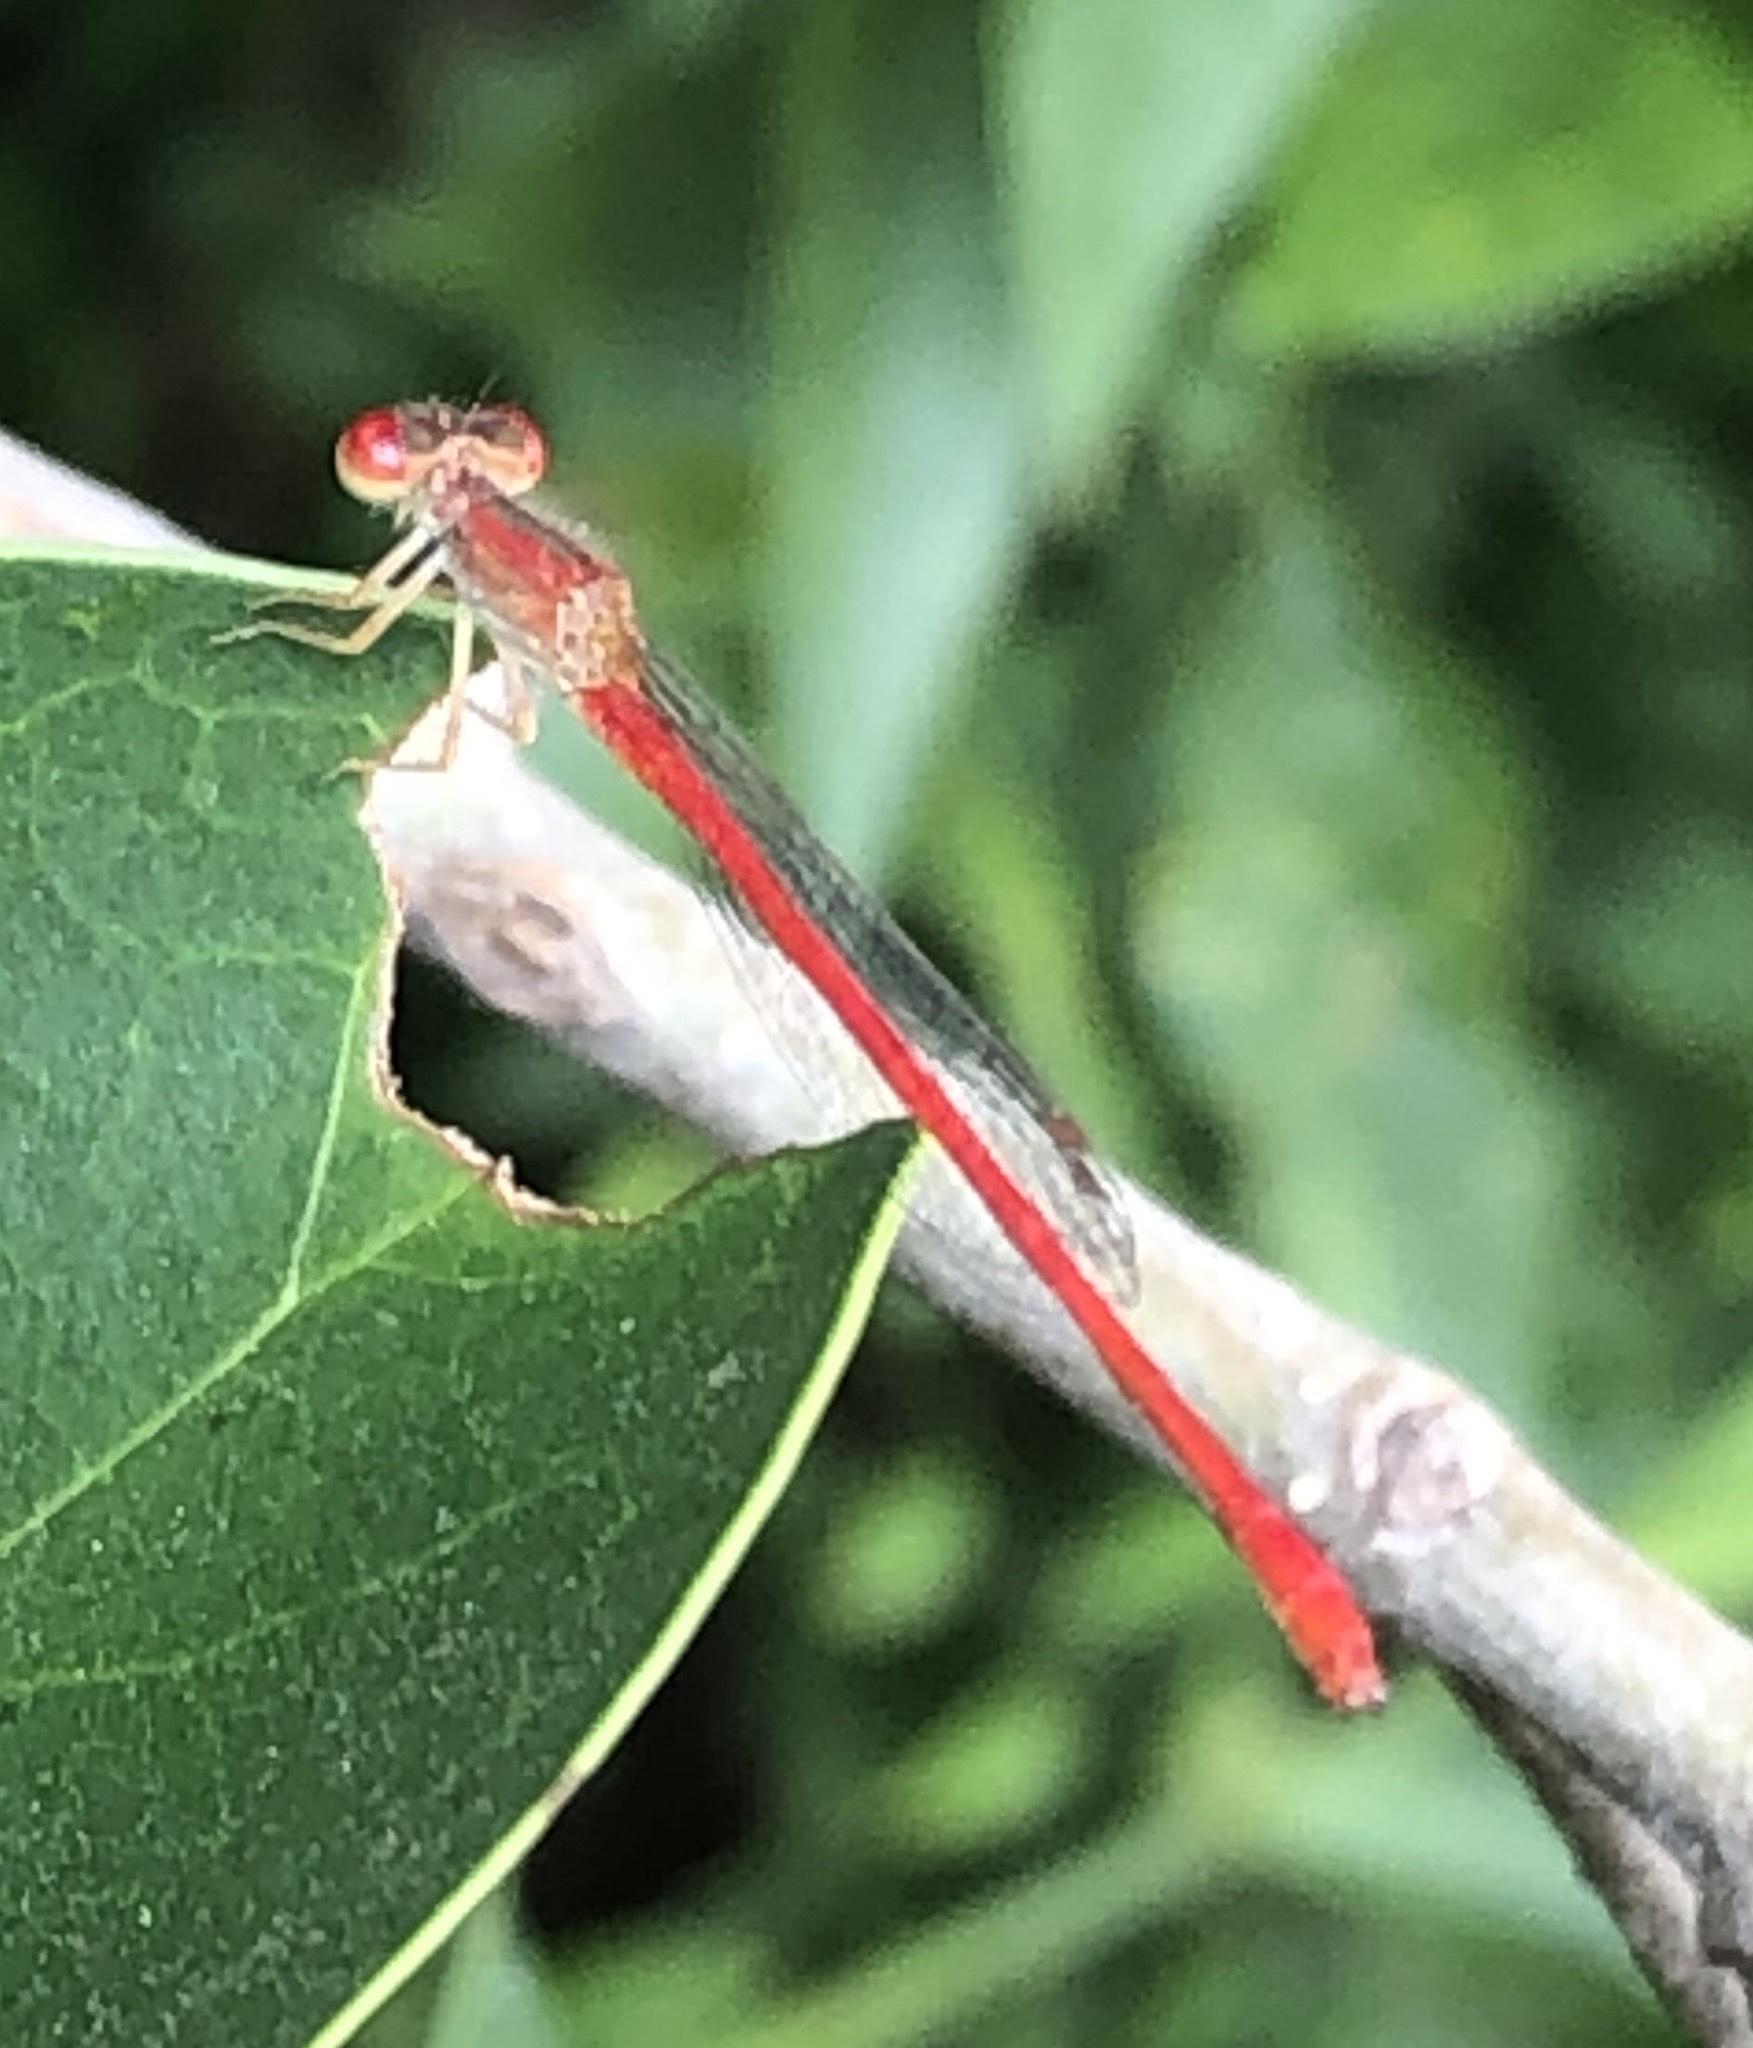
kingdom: Animalia
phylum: Arthropoda
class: Insecta
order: Odonata
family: Coenagrionidae
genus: Telebasis
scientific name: Telebasis salva
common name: Desert firetail
